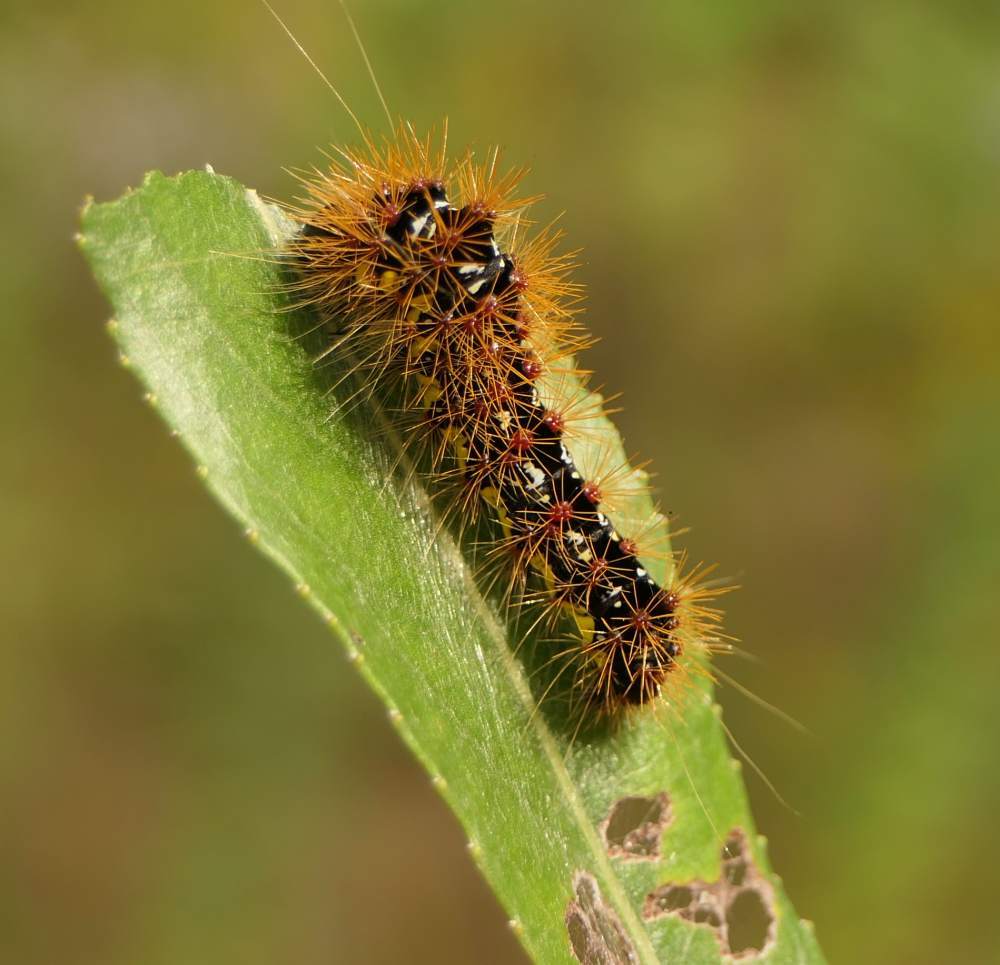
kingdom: Animalia
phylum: Arthropoda
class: Insecta
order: Lepidoptera
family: Noctuidae
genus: Acronicta
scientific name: Acronicta oblinita
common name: Smeared dagger
